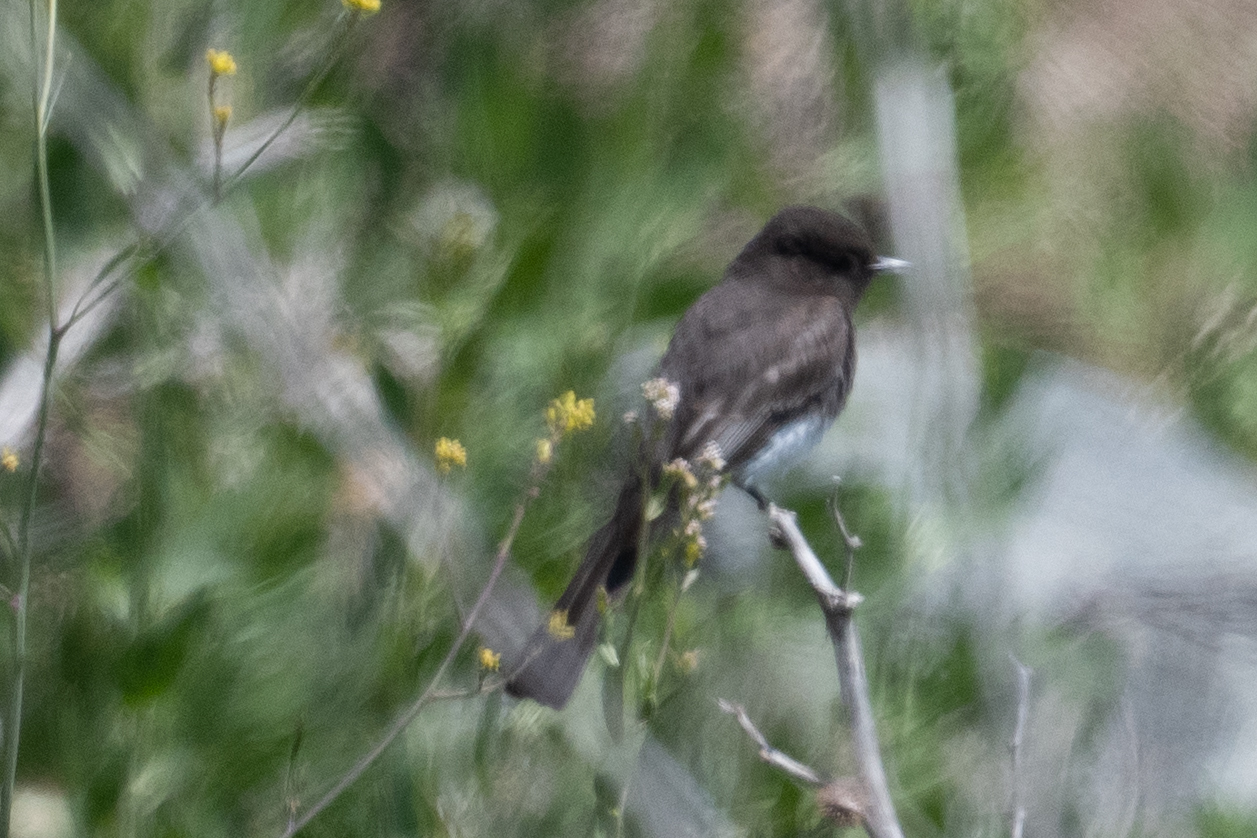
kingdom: Animalia
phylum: Chordata
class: Aves
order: Passeriformes
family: Tyrannidae
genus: Sayornis
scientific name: Sayornis nigricans
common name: Black phoebe
